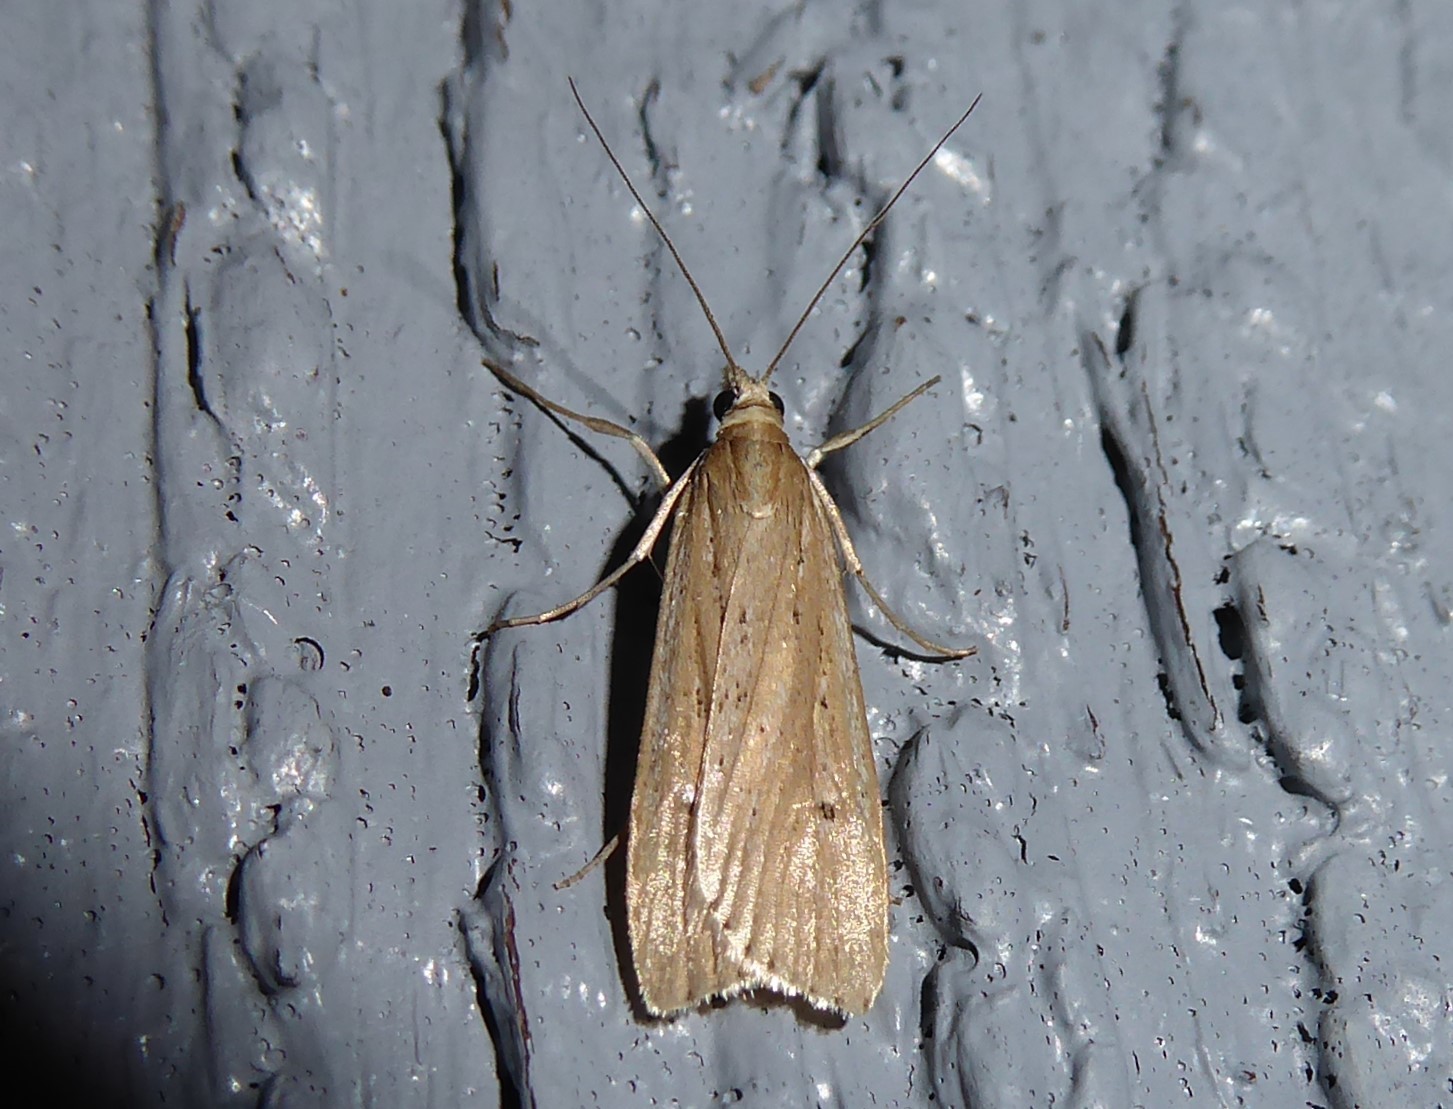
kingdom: Animalia
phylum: Arthropoda
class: Insecta
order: Lepidoptera
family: Crambidae
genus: Eudonia
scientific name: Eudonia sabulosella
